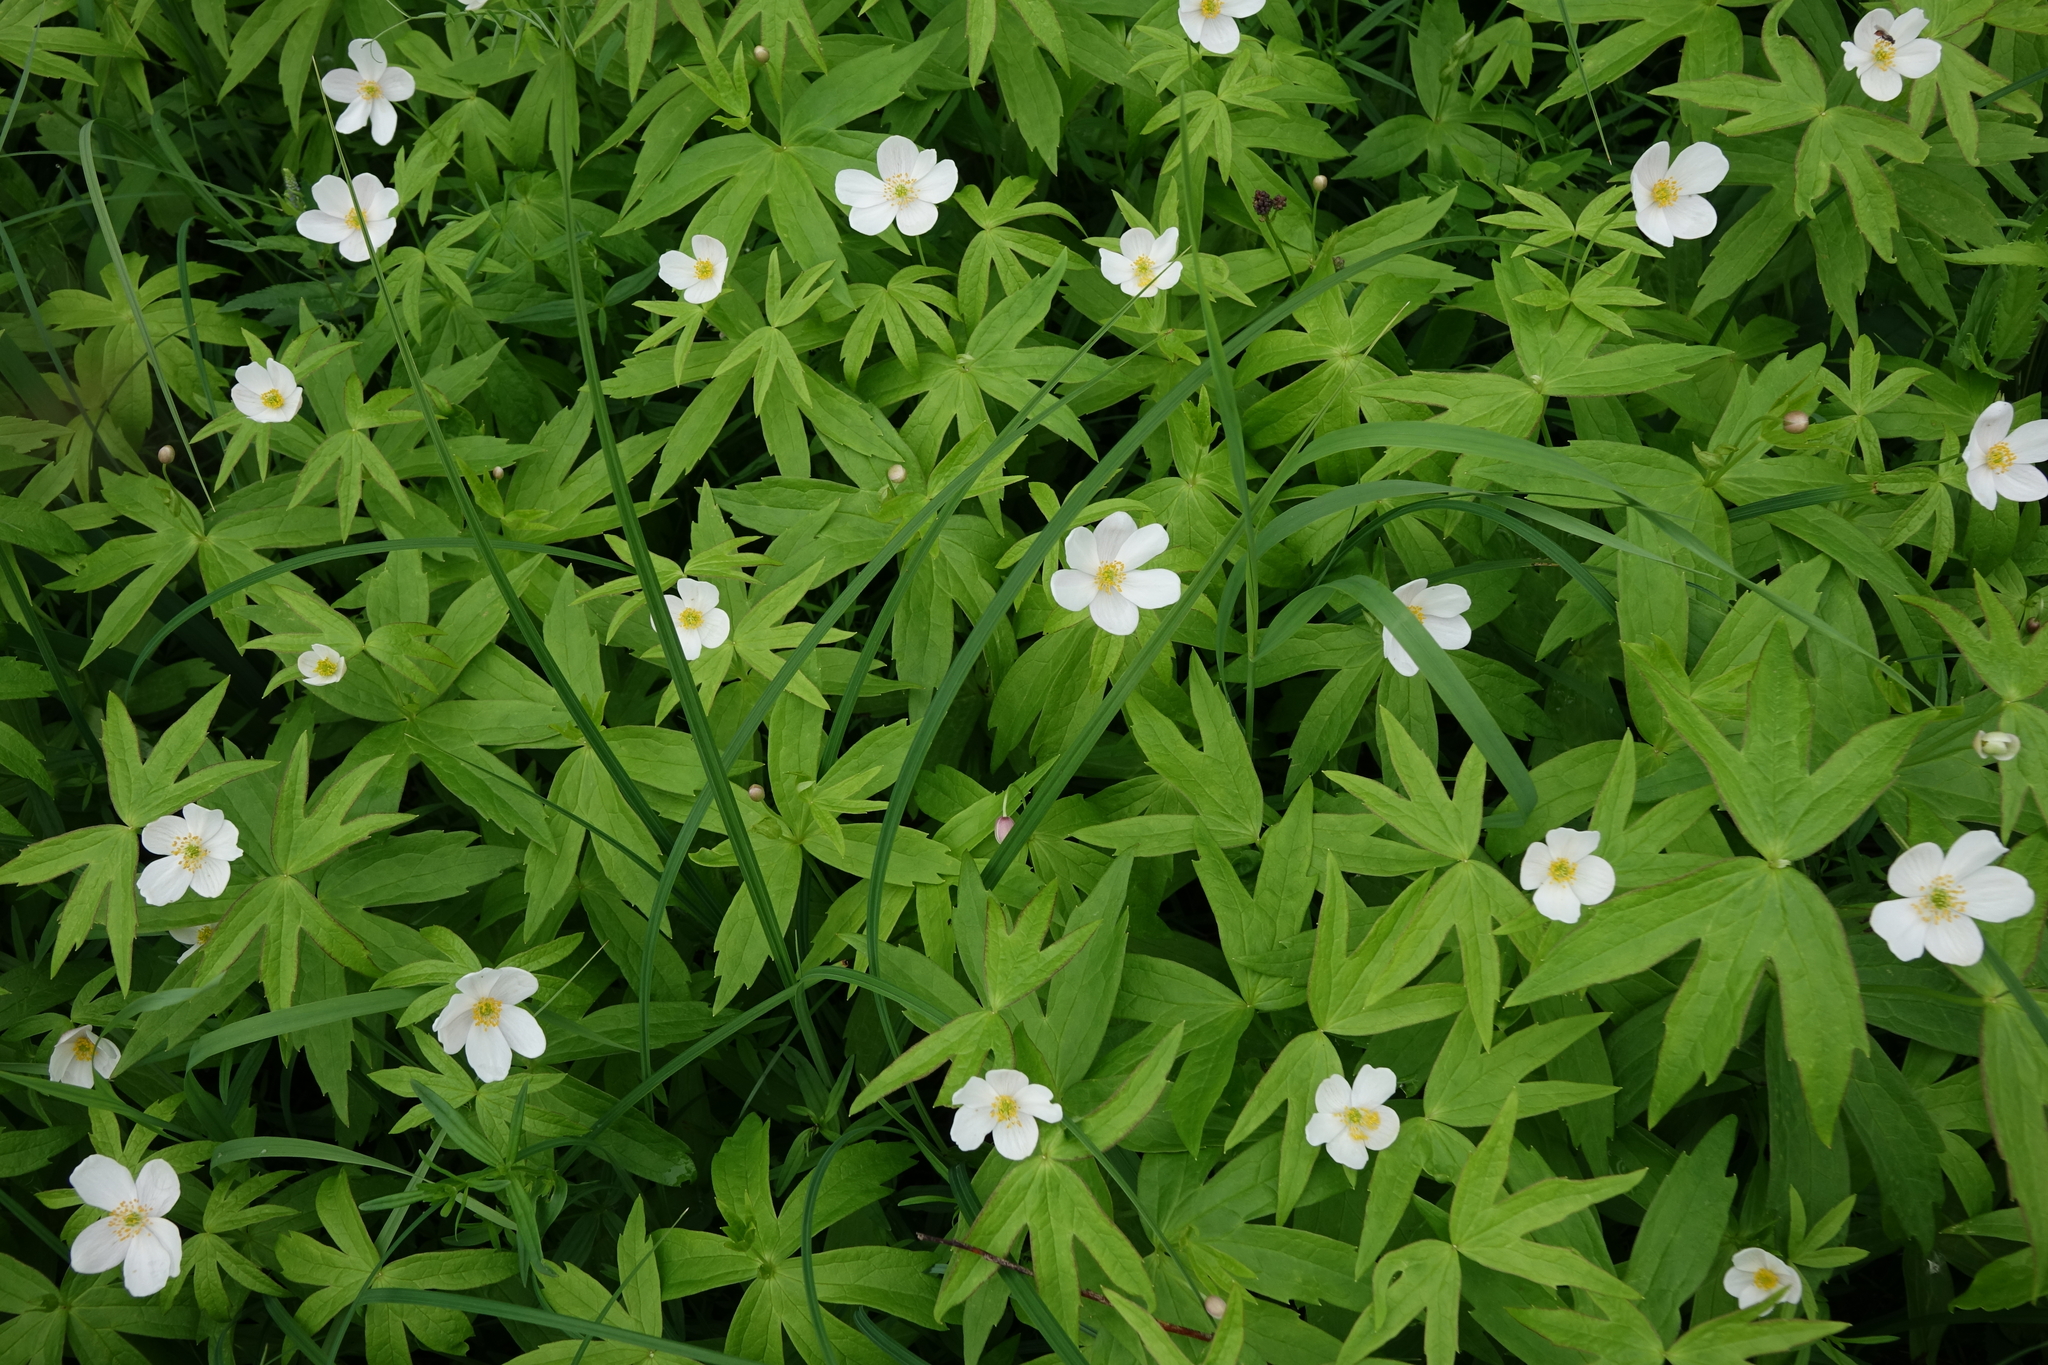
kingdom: Plantae
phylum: Tracheophyta
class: Magnoliopsida
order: Ranunculales
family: Ranunculaceae
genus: Anemonastrum
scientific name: Anemonastrum dichotomum
